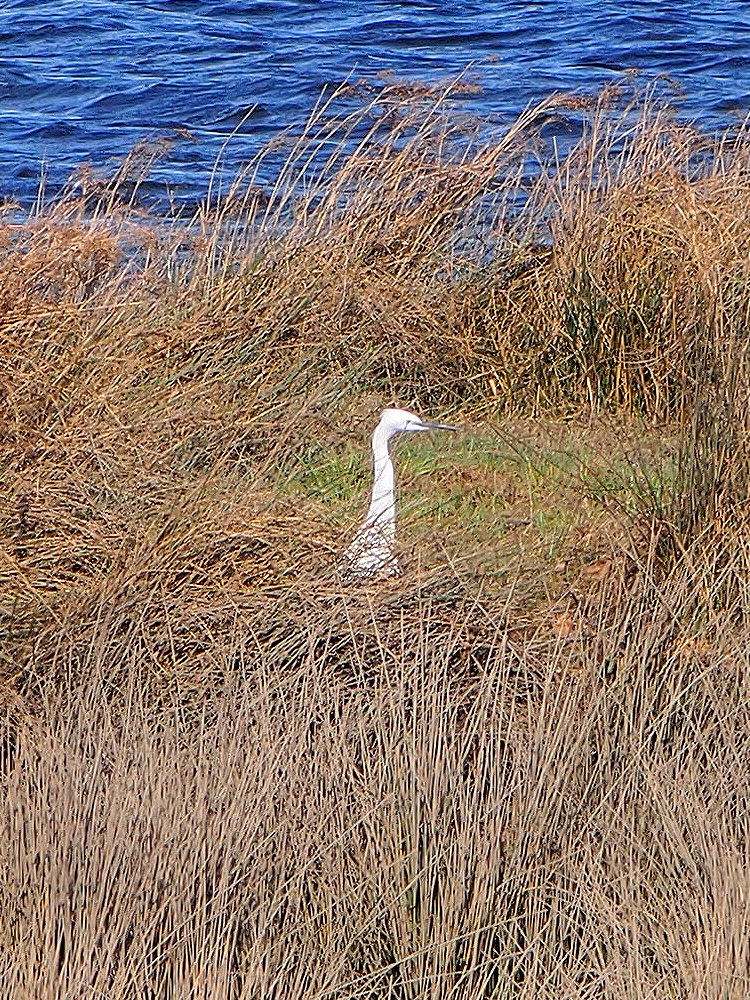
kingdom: Animalia
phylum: Chordata
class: Aves
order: Pelecaniformes
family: Ardeidae
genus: Egretta
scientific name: Egretta garzetta
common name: Little egret
